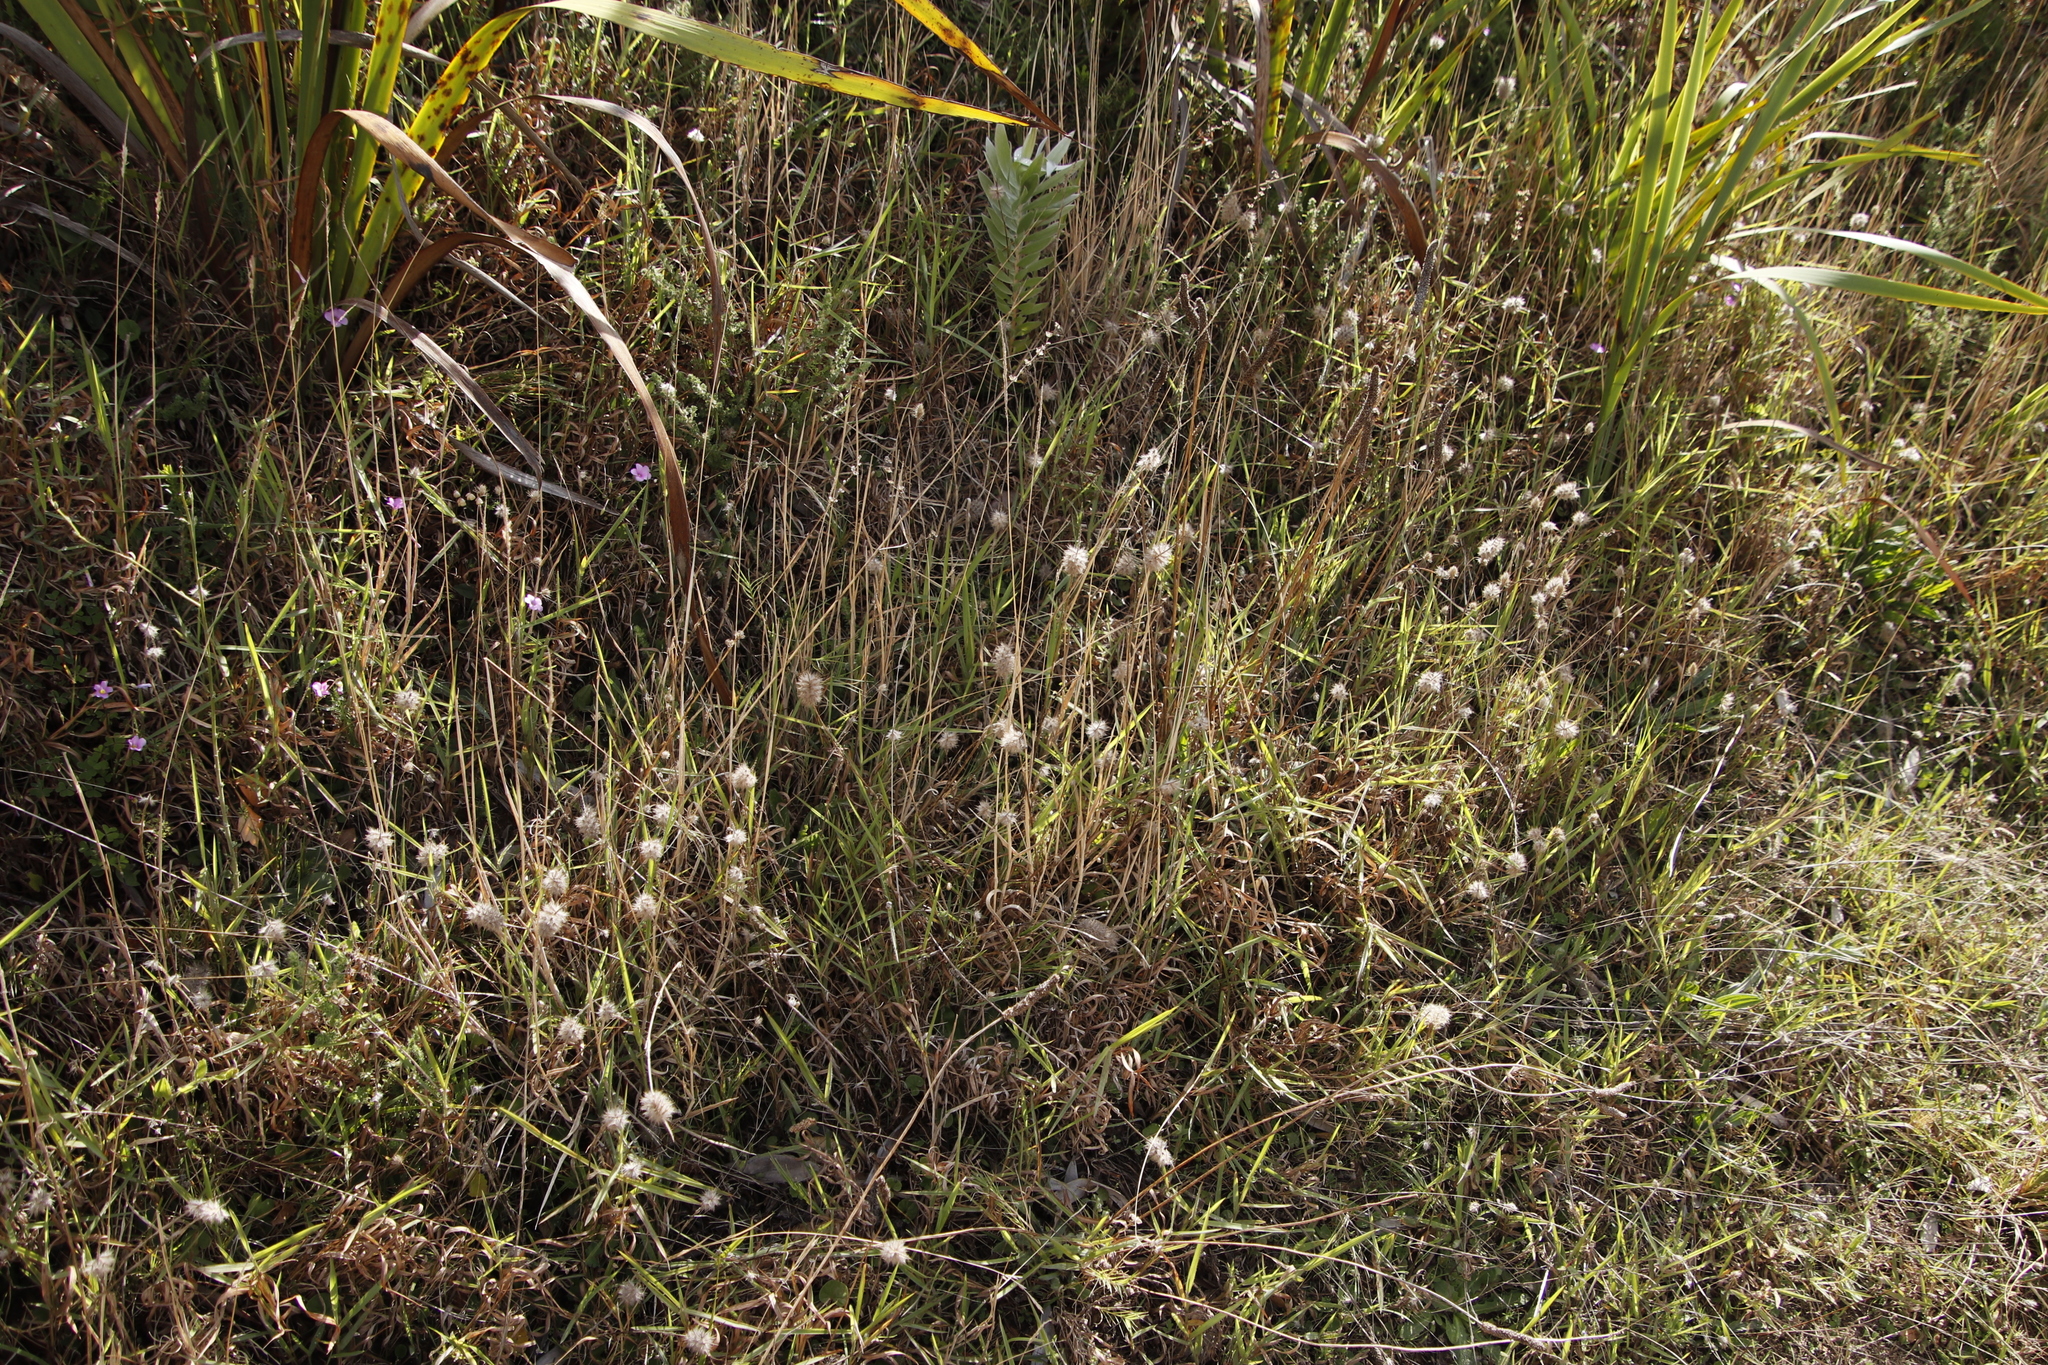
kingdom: Plantae
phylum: Tracheophyta
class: Magnoliopsida
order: Fabales
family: Fabaceae
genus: Trifolium
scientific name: Trifolium angustifolium
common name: Narrow clover
